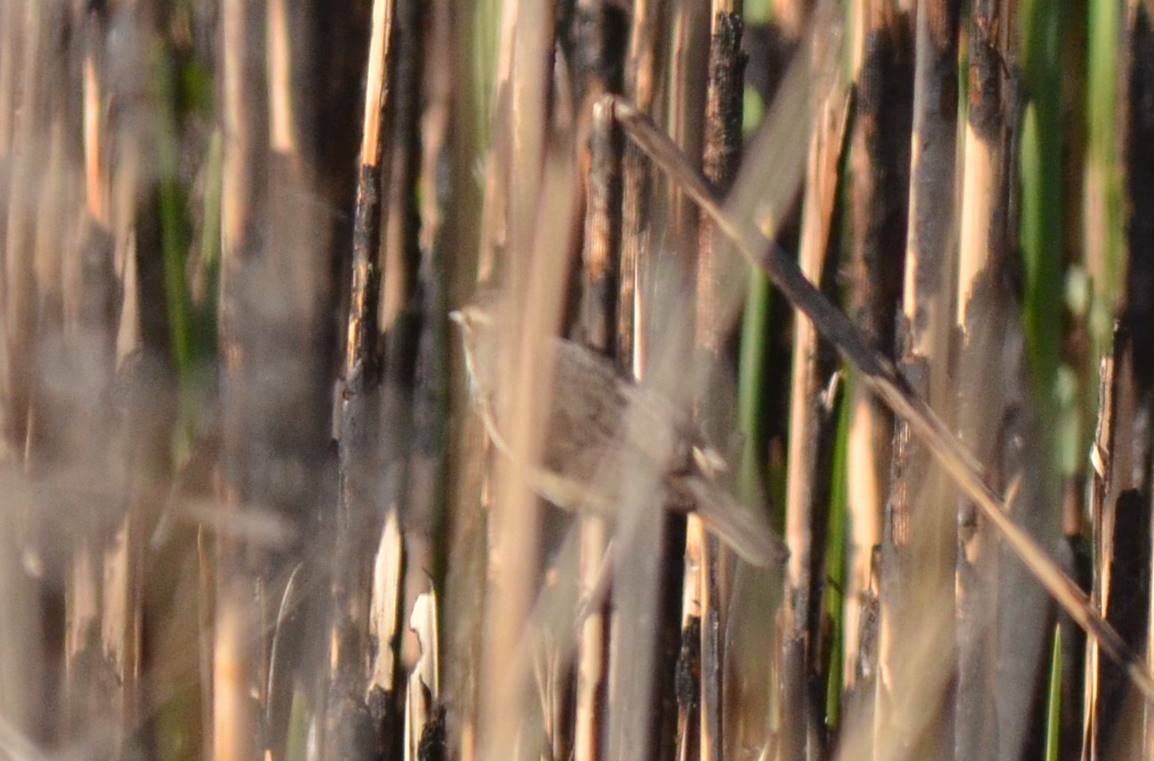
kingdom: Animalia
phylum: Chordata
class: Aves
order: Passeriformes
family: Muscicapidae
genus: Luscinia
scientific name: Luscinia svecica
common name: Bluethroat
